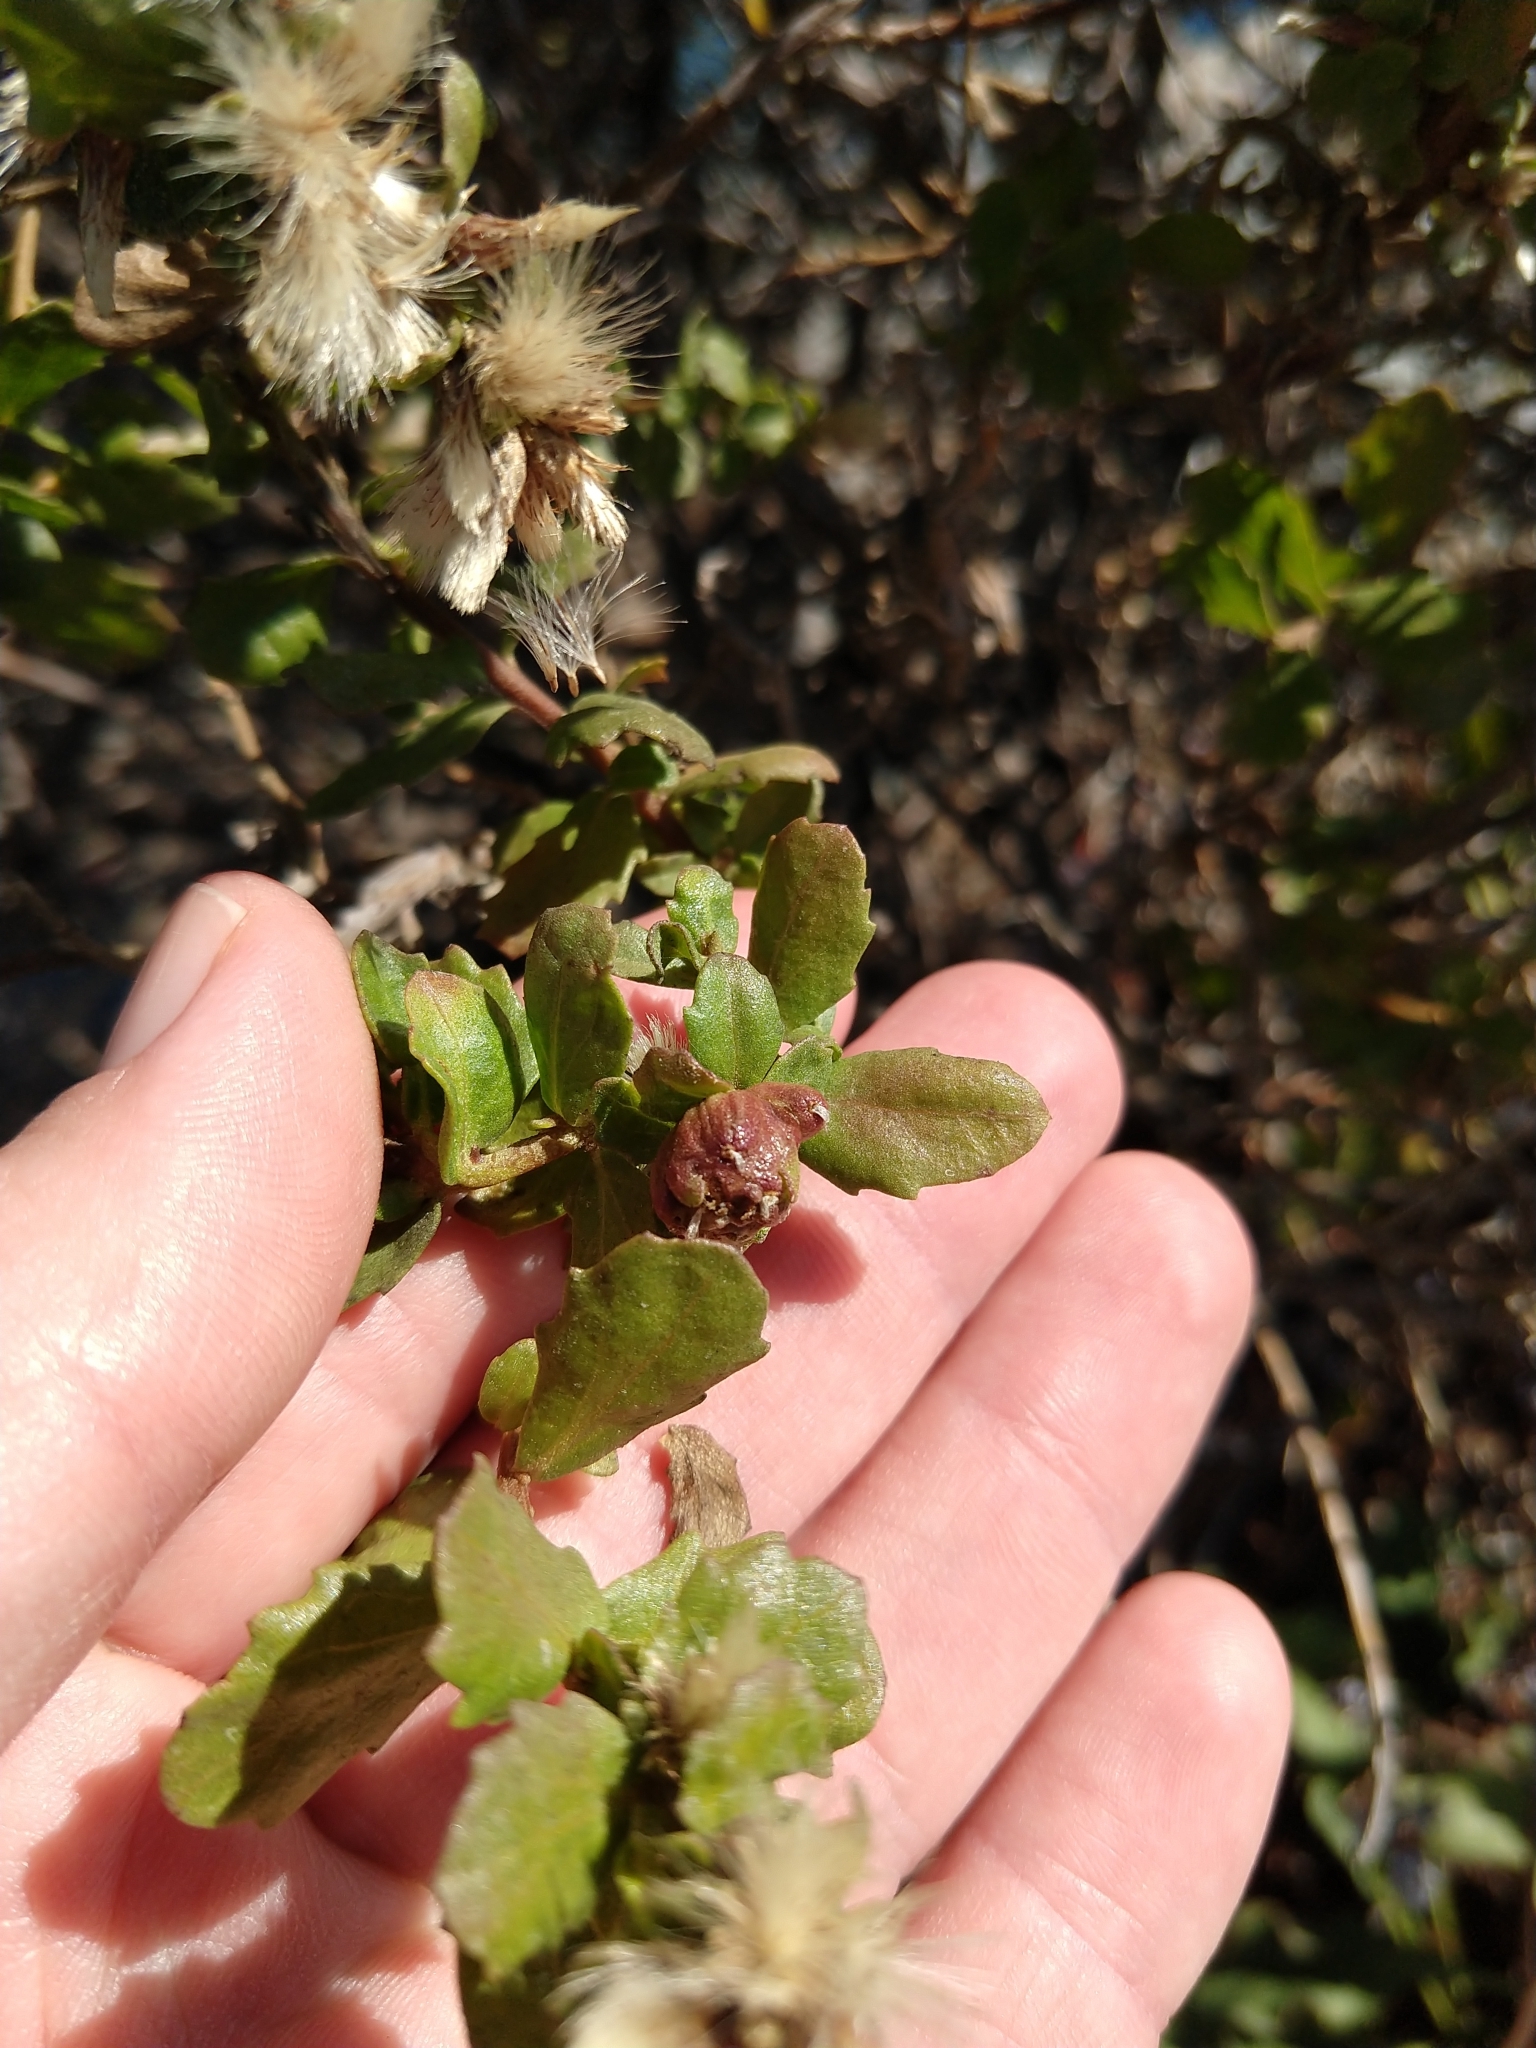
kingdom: Animalia
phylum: Arthropoda
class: Insecta
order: Diptera
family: Cecidomyiidae
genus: Rhopalomyia
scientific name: Rhopalomyia californica
